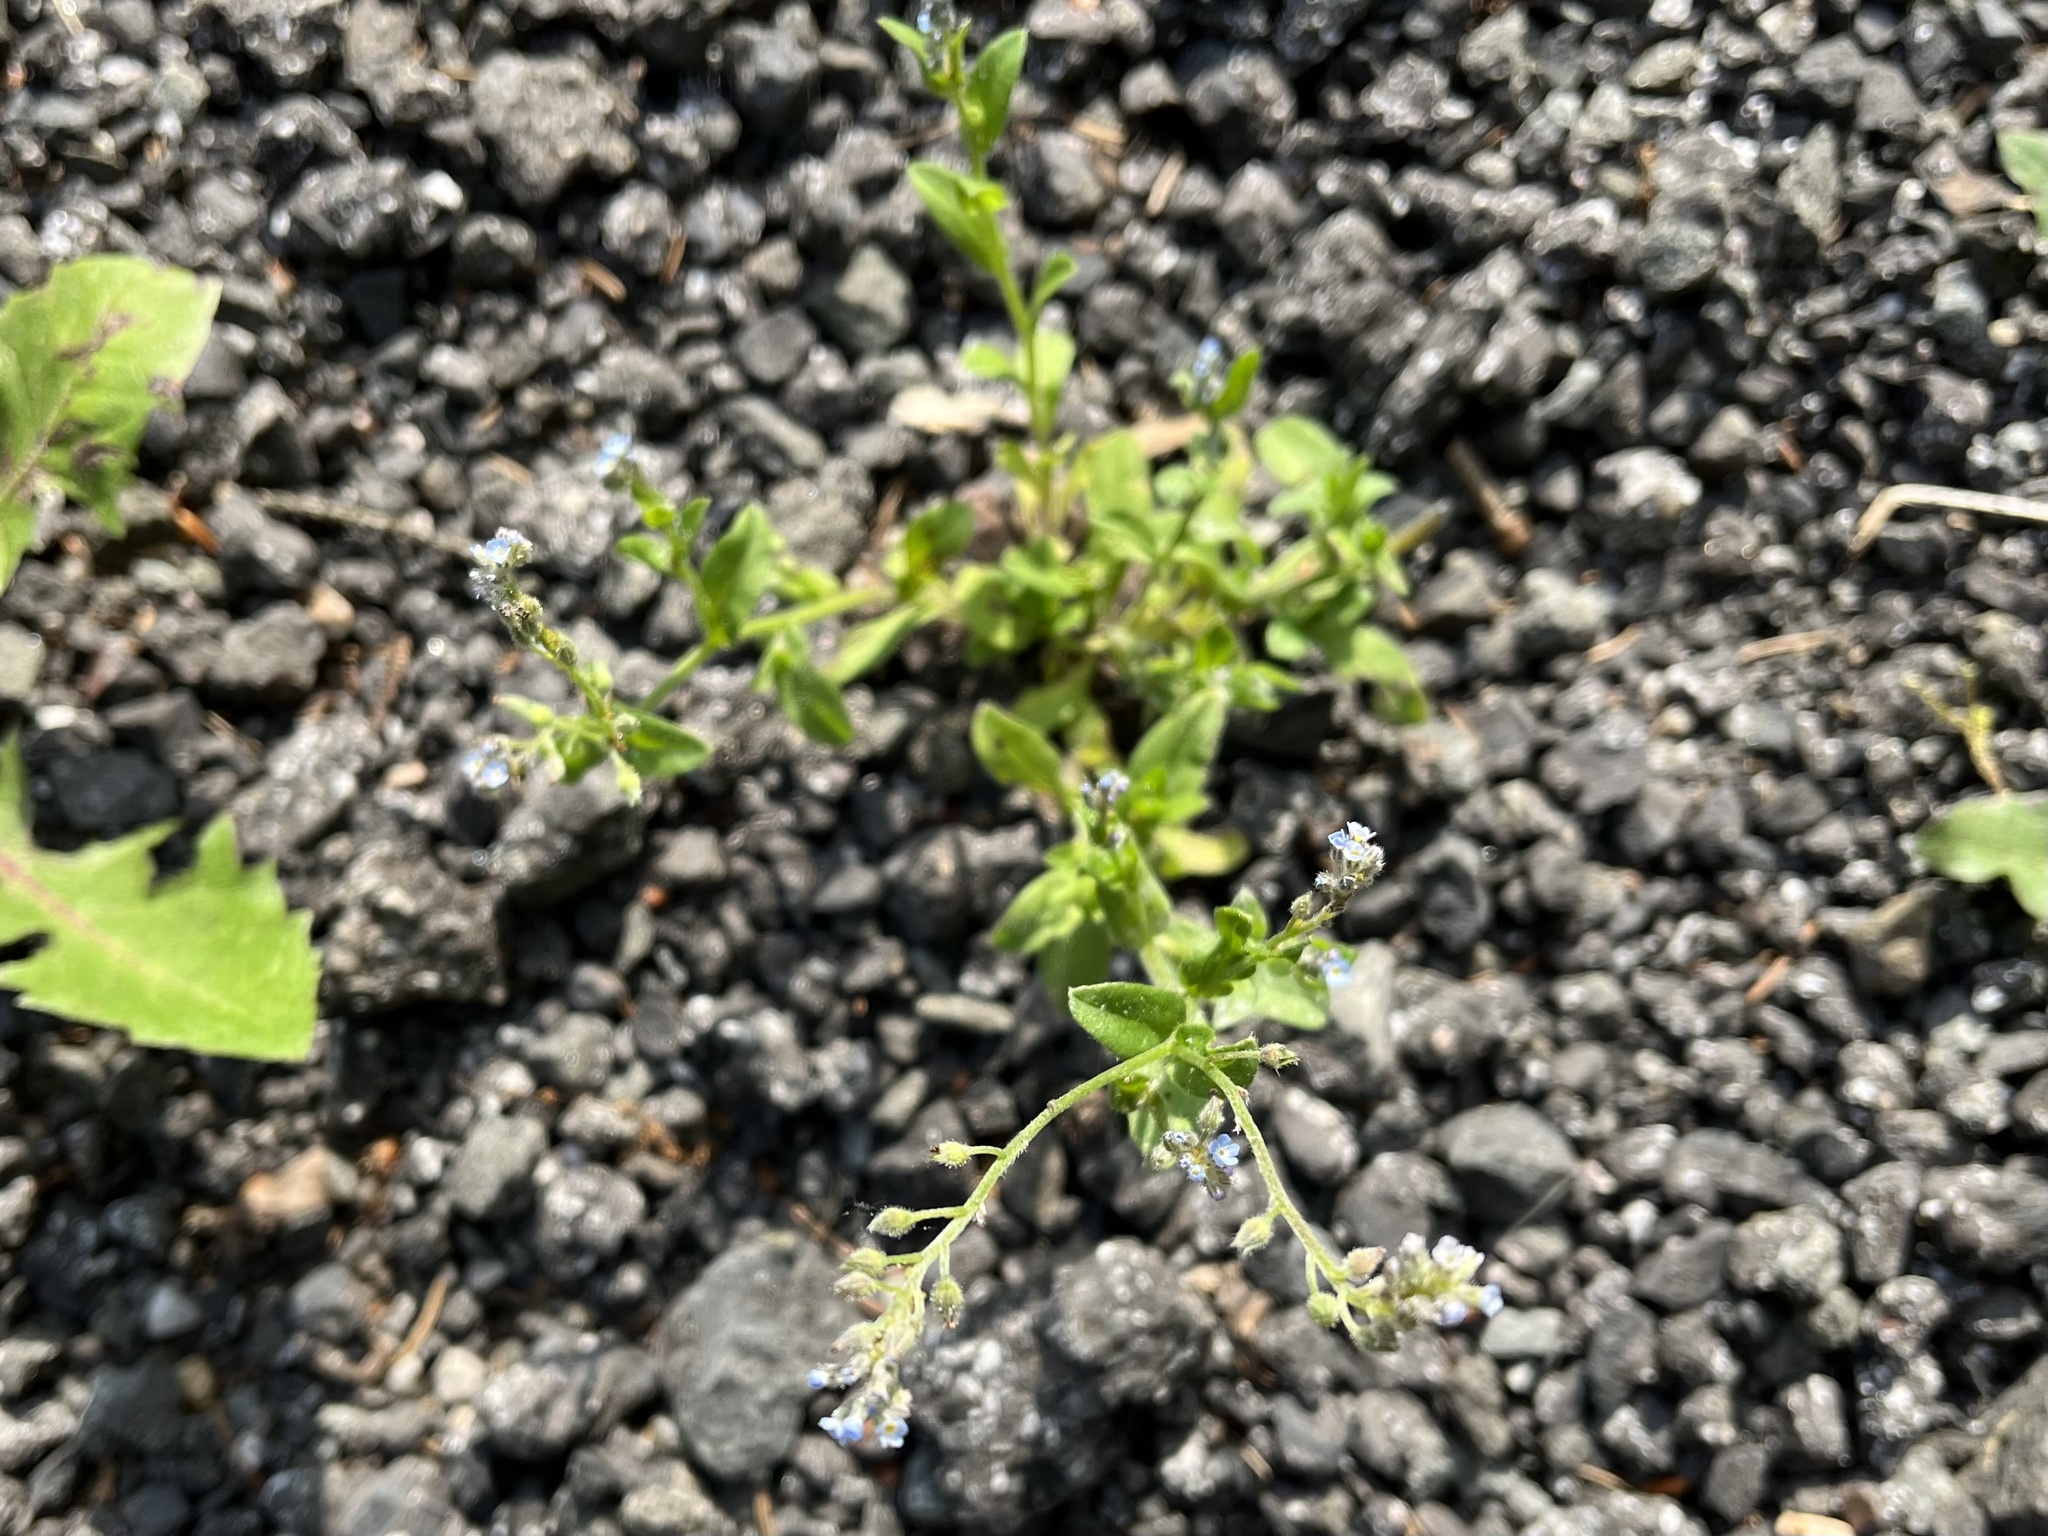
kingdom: Plantae
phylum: Tracheophyta
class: Magnoliopsida
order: Boraginales
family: Boraginaceae
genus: Myosotis
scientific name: Myosotis arvensis
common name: Field forget-me-not
